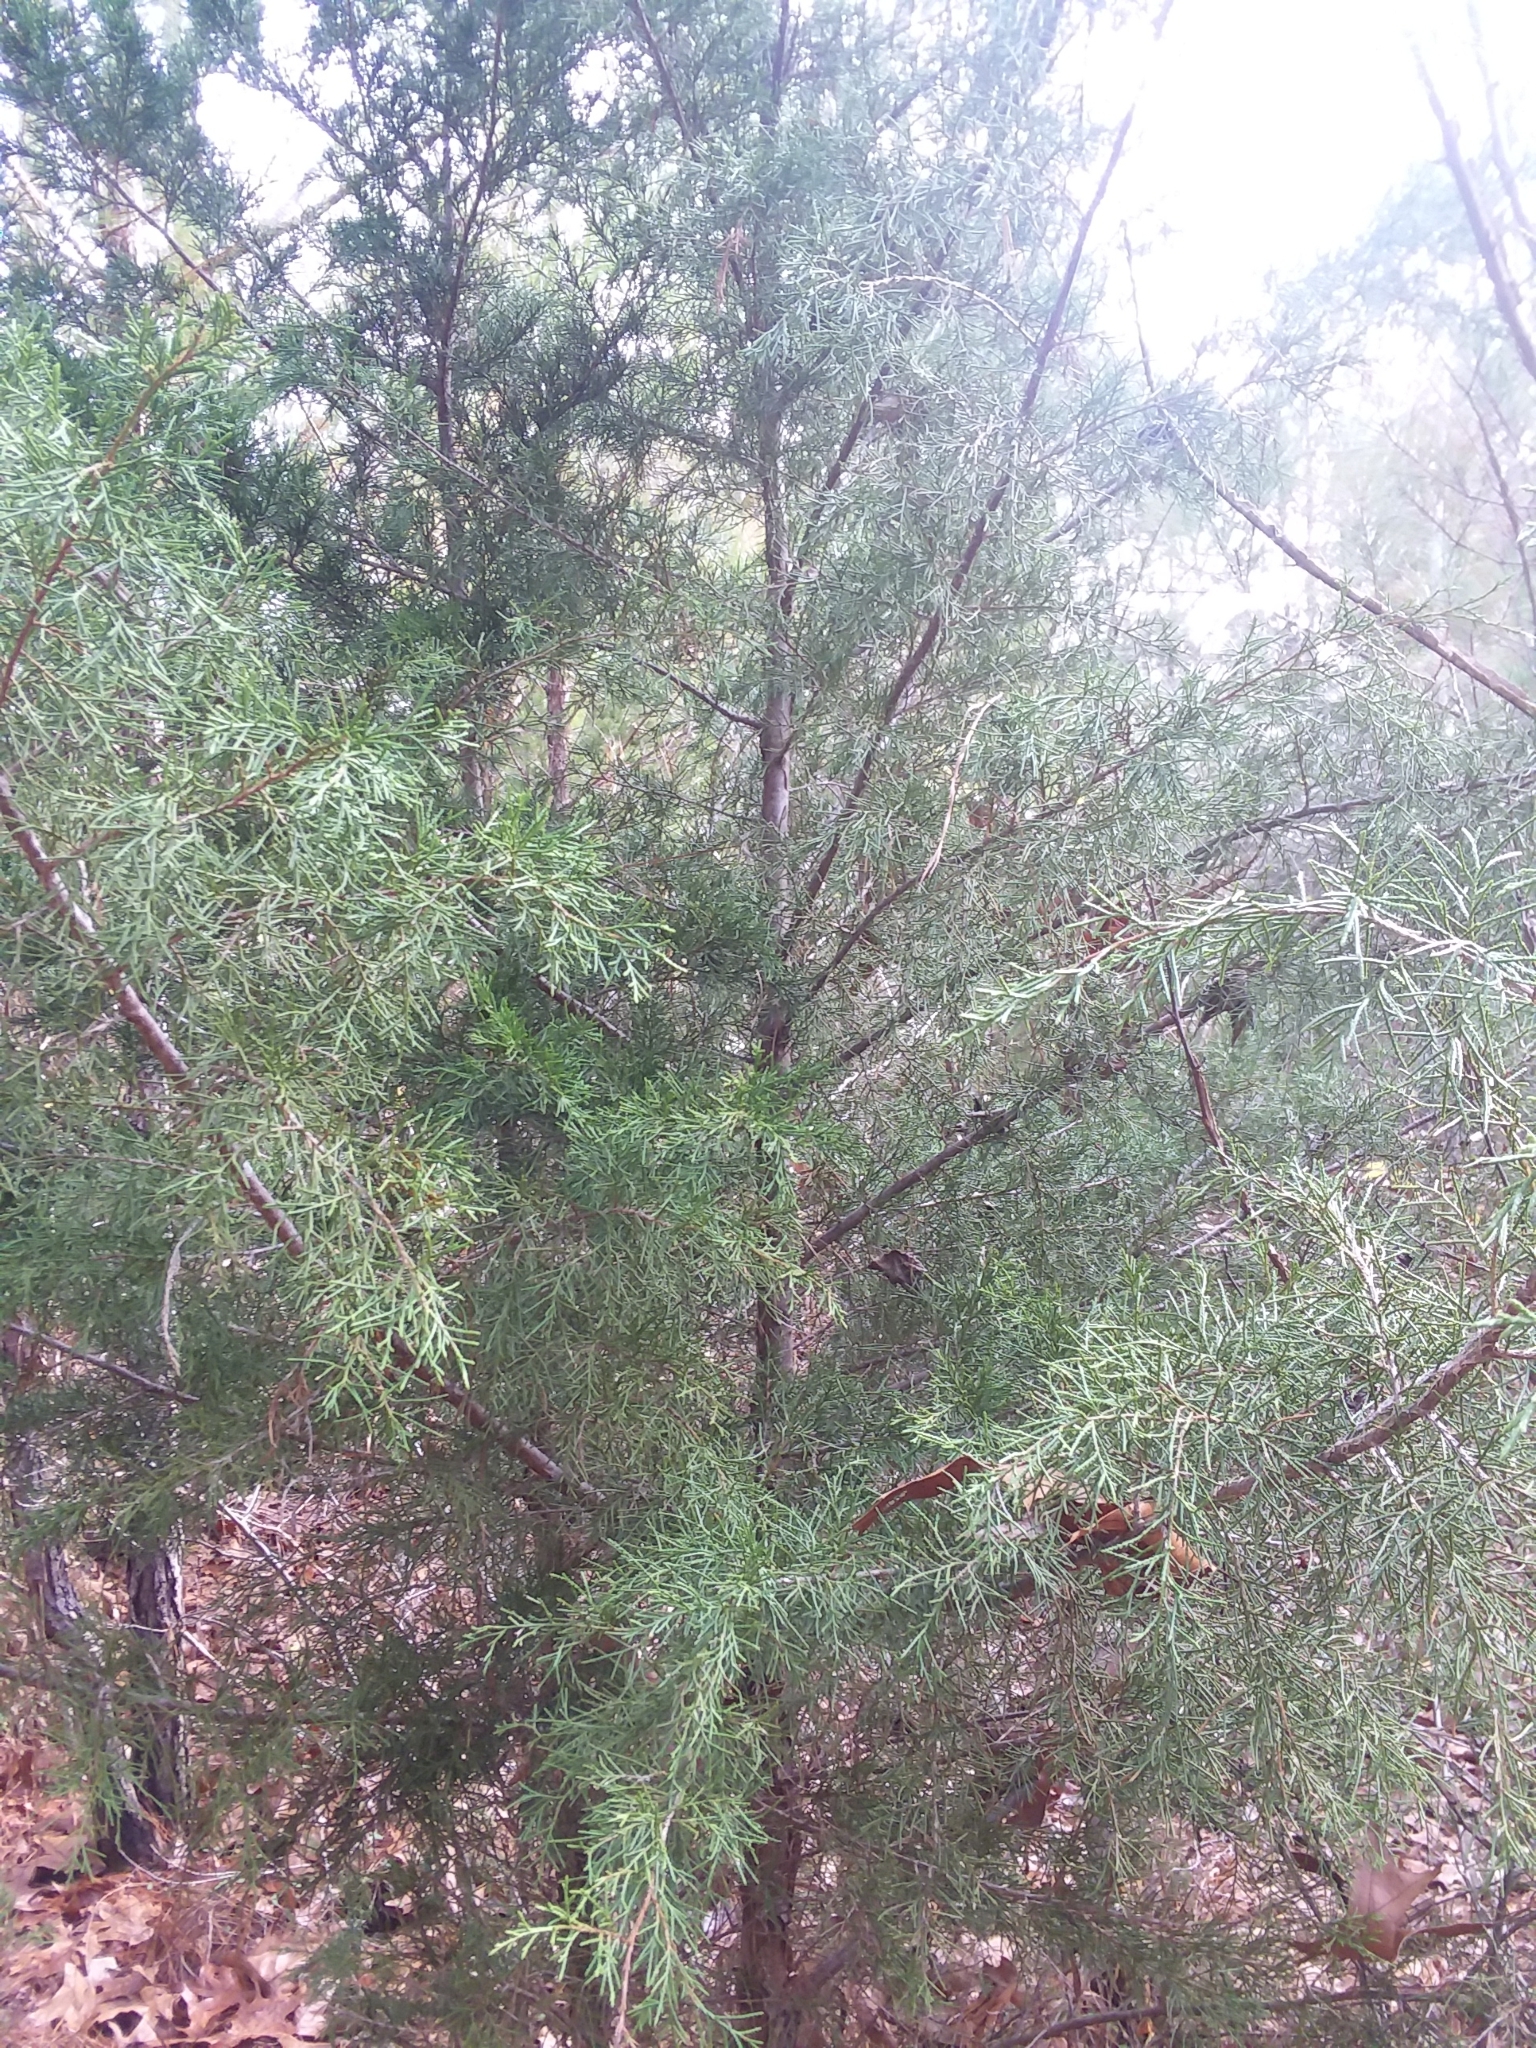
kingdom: Plantae
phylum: Tracheophyta
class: Pinopsida
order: Pinales
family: Cupressaceae
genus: Juniperus
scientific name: Juniperus virginiana
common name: Red juniper
